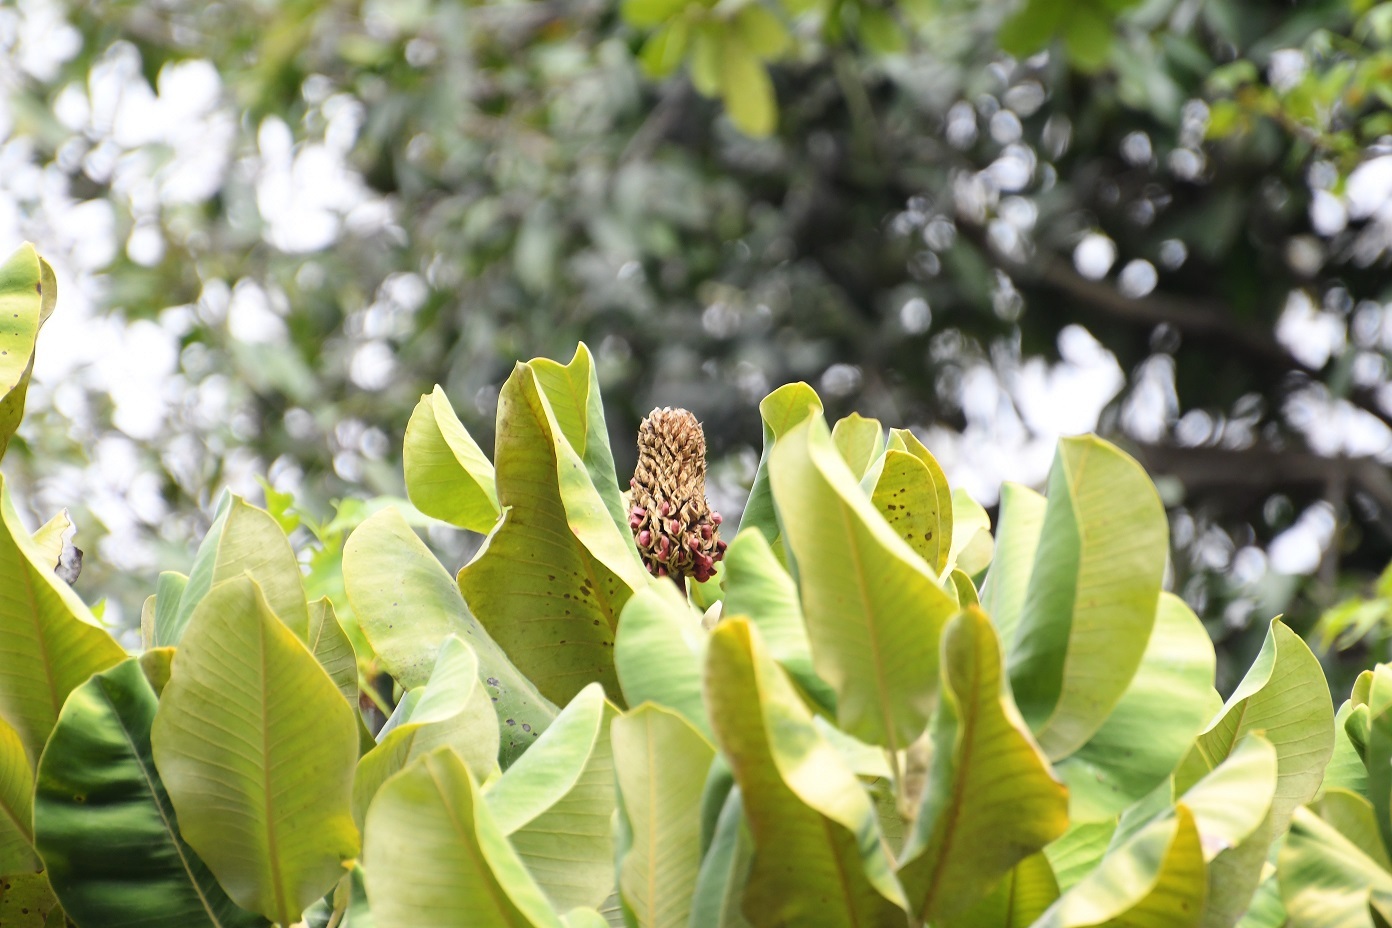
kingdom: Plantae
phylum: Tracheophyta
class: Magnoliopsida
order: Magnoliales
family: Magnoliaceae
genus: Magnolia
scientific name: Magnolia sharpii
